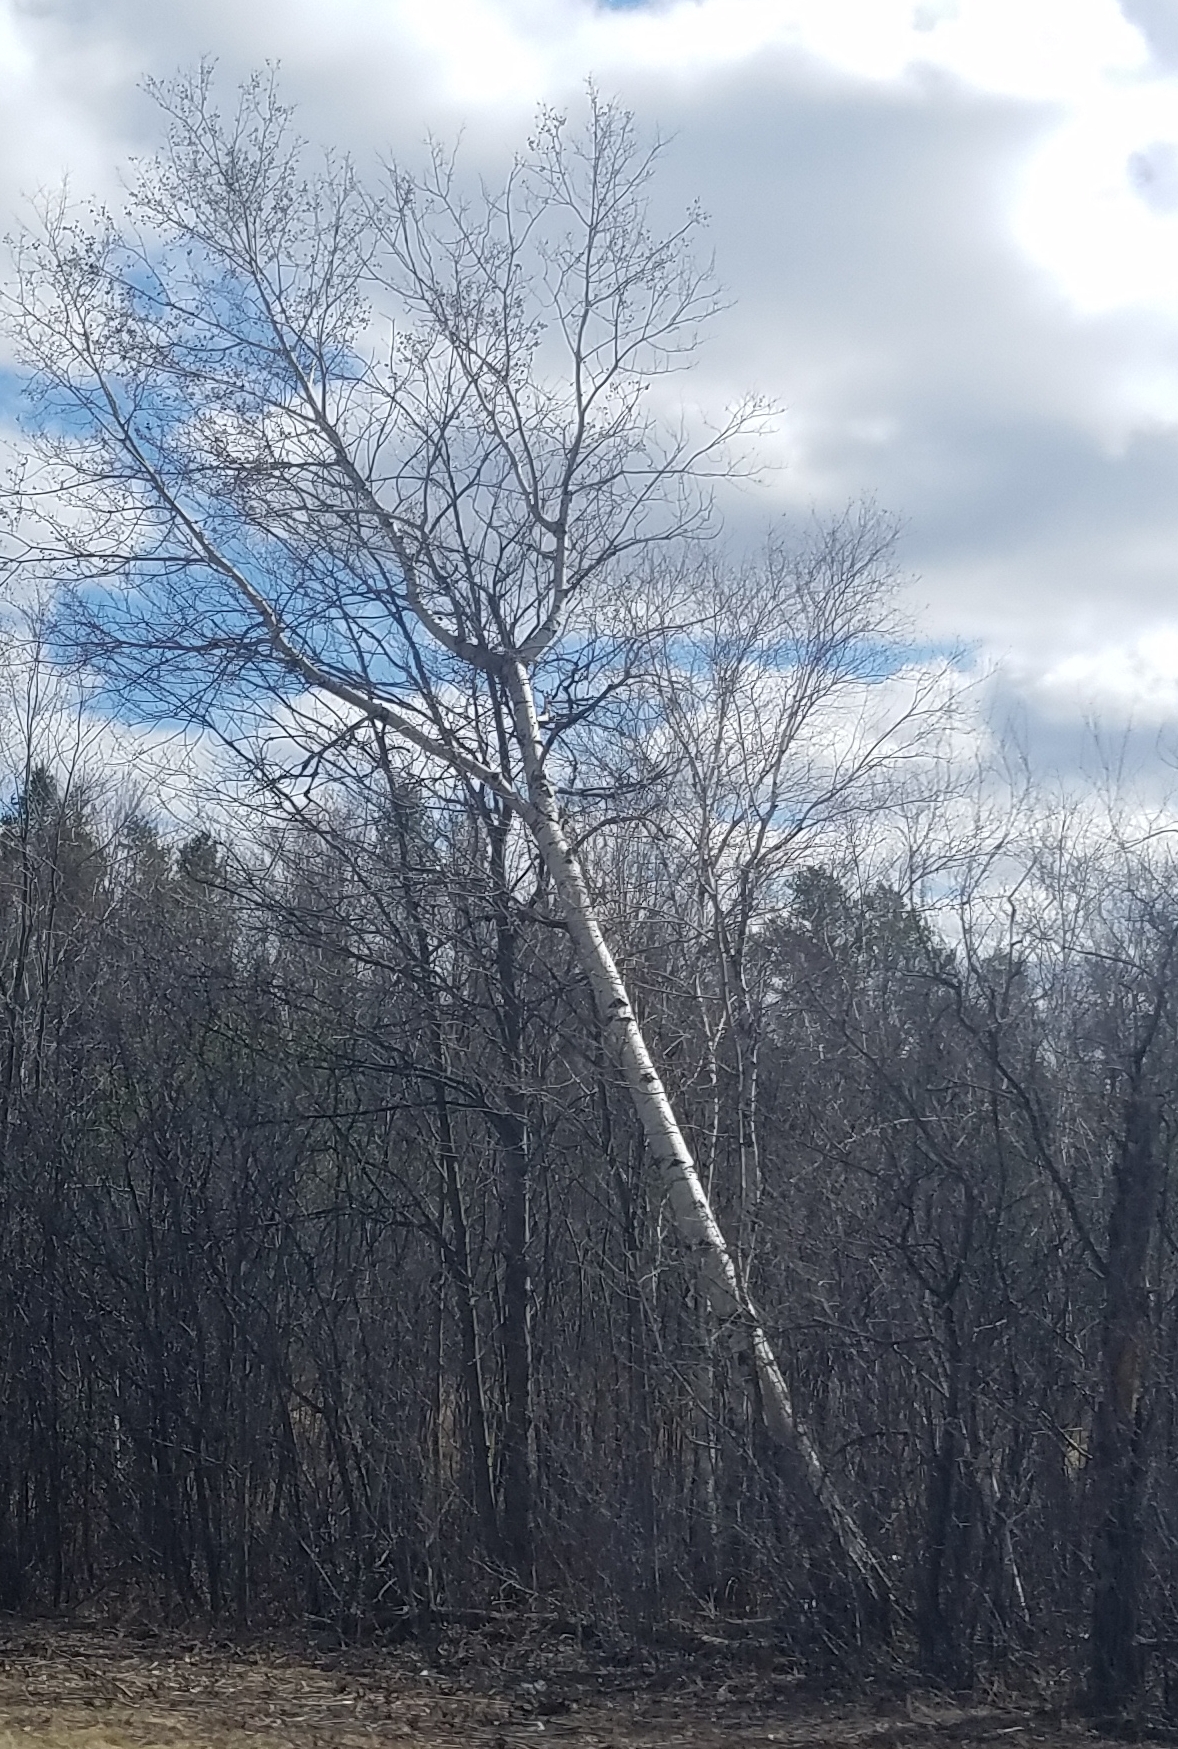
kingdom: Plantae
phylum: Tracheophyta
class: Magnoliopsida
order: Malpighiales
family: Salicaceae
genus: Populus
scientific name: Populus tremuloides
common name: Quaking aspen
